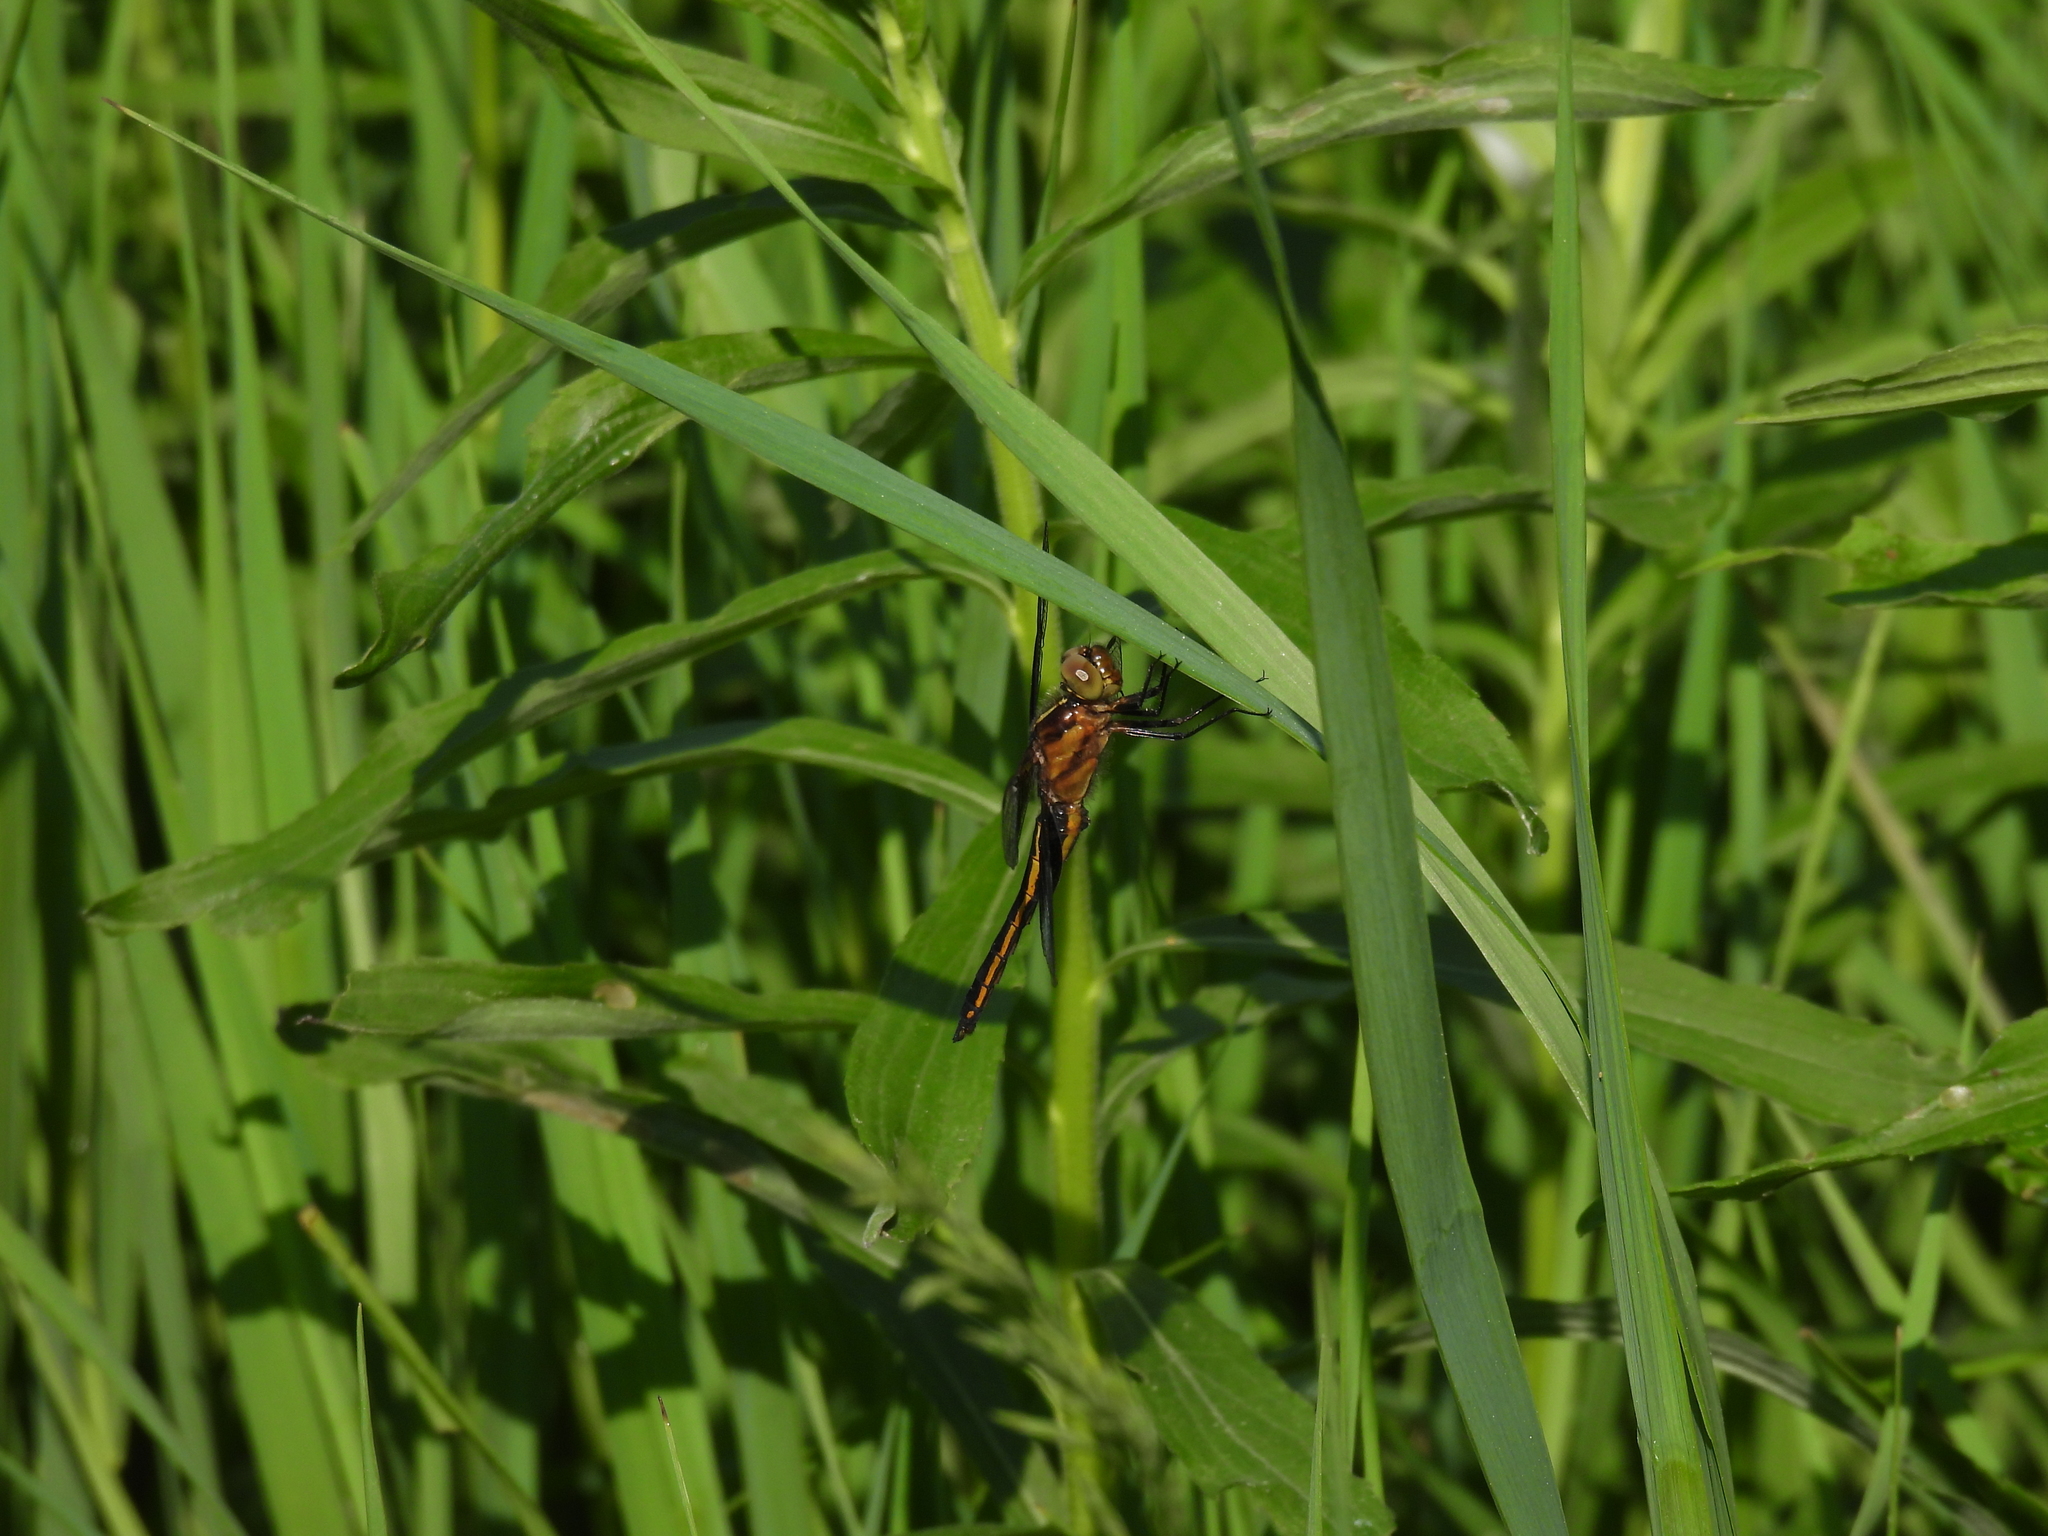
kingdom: Animalia
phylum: Arthropoda
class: Insecta
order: Odonata
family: Libellulidae
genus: Libellula
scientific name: Libellula luctuosa
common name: Widow skimmer
